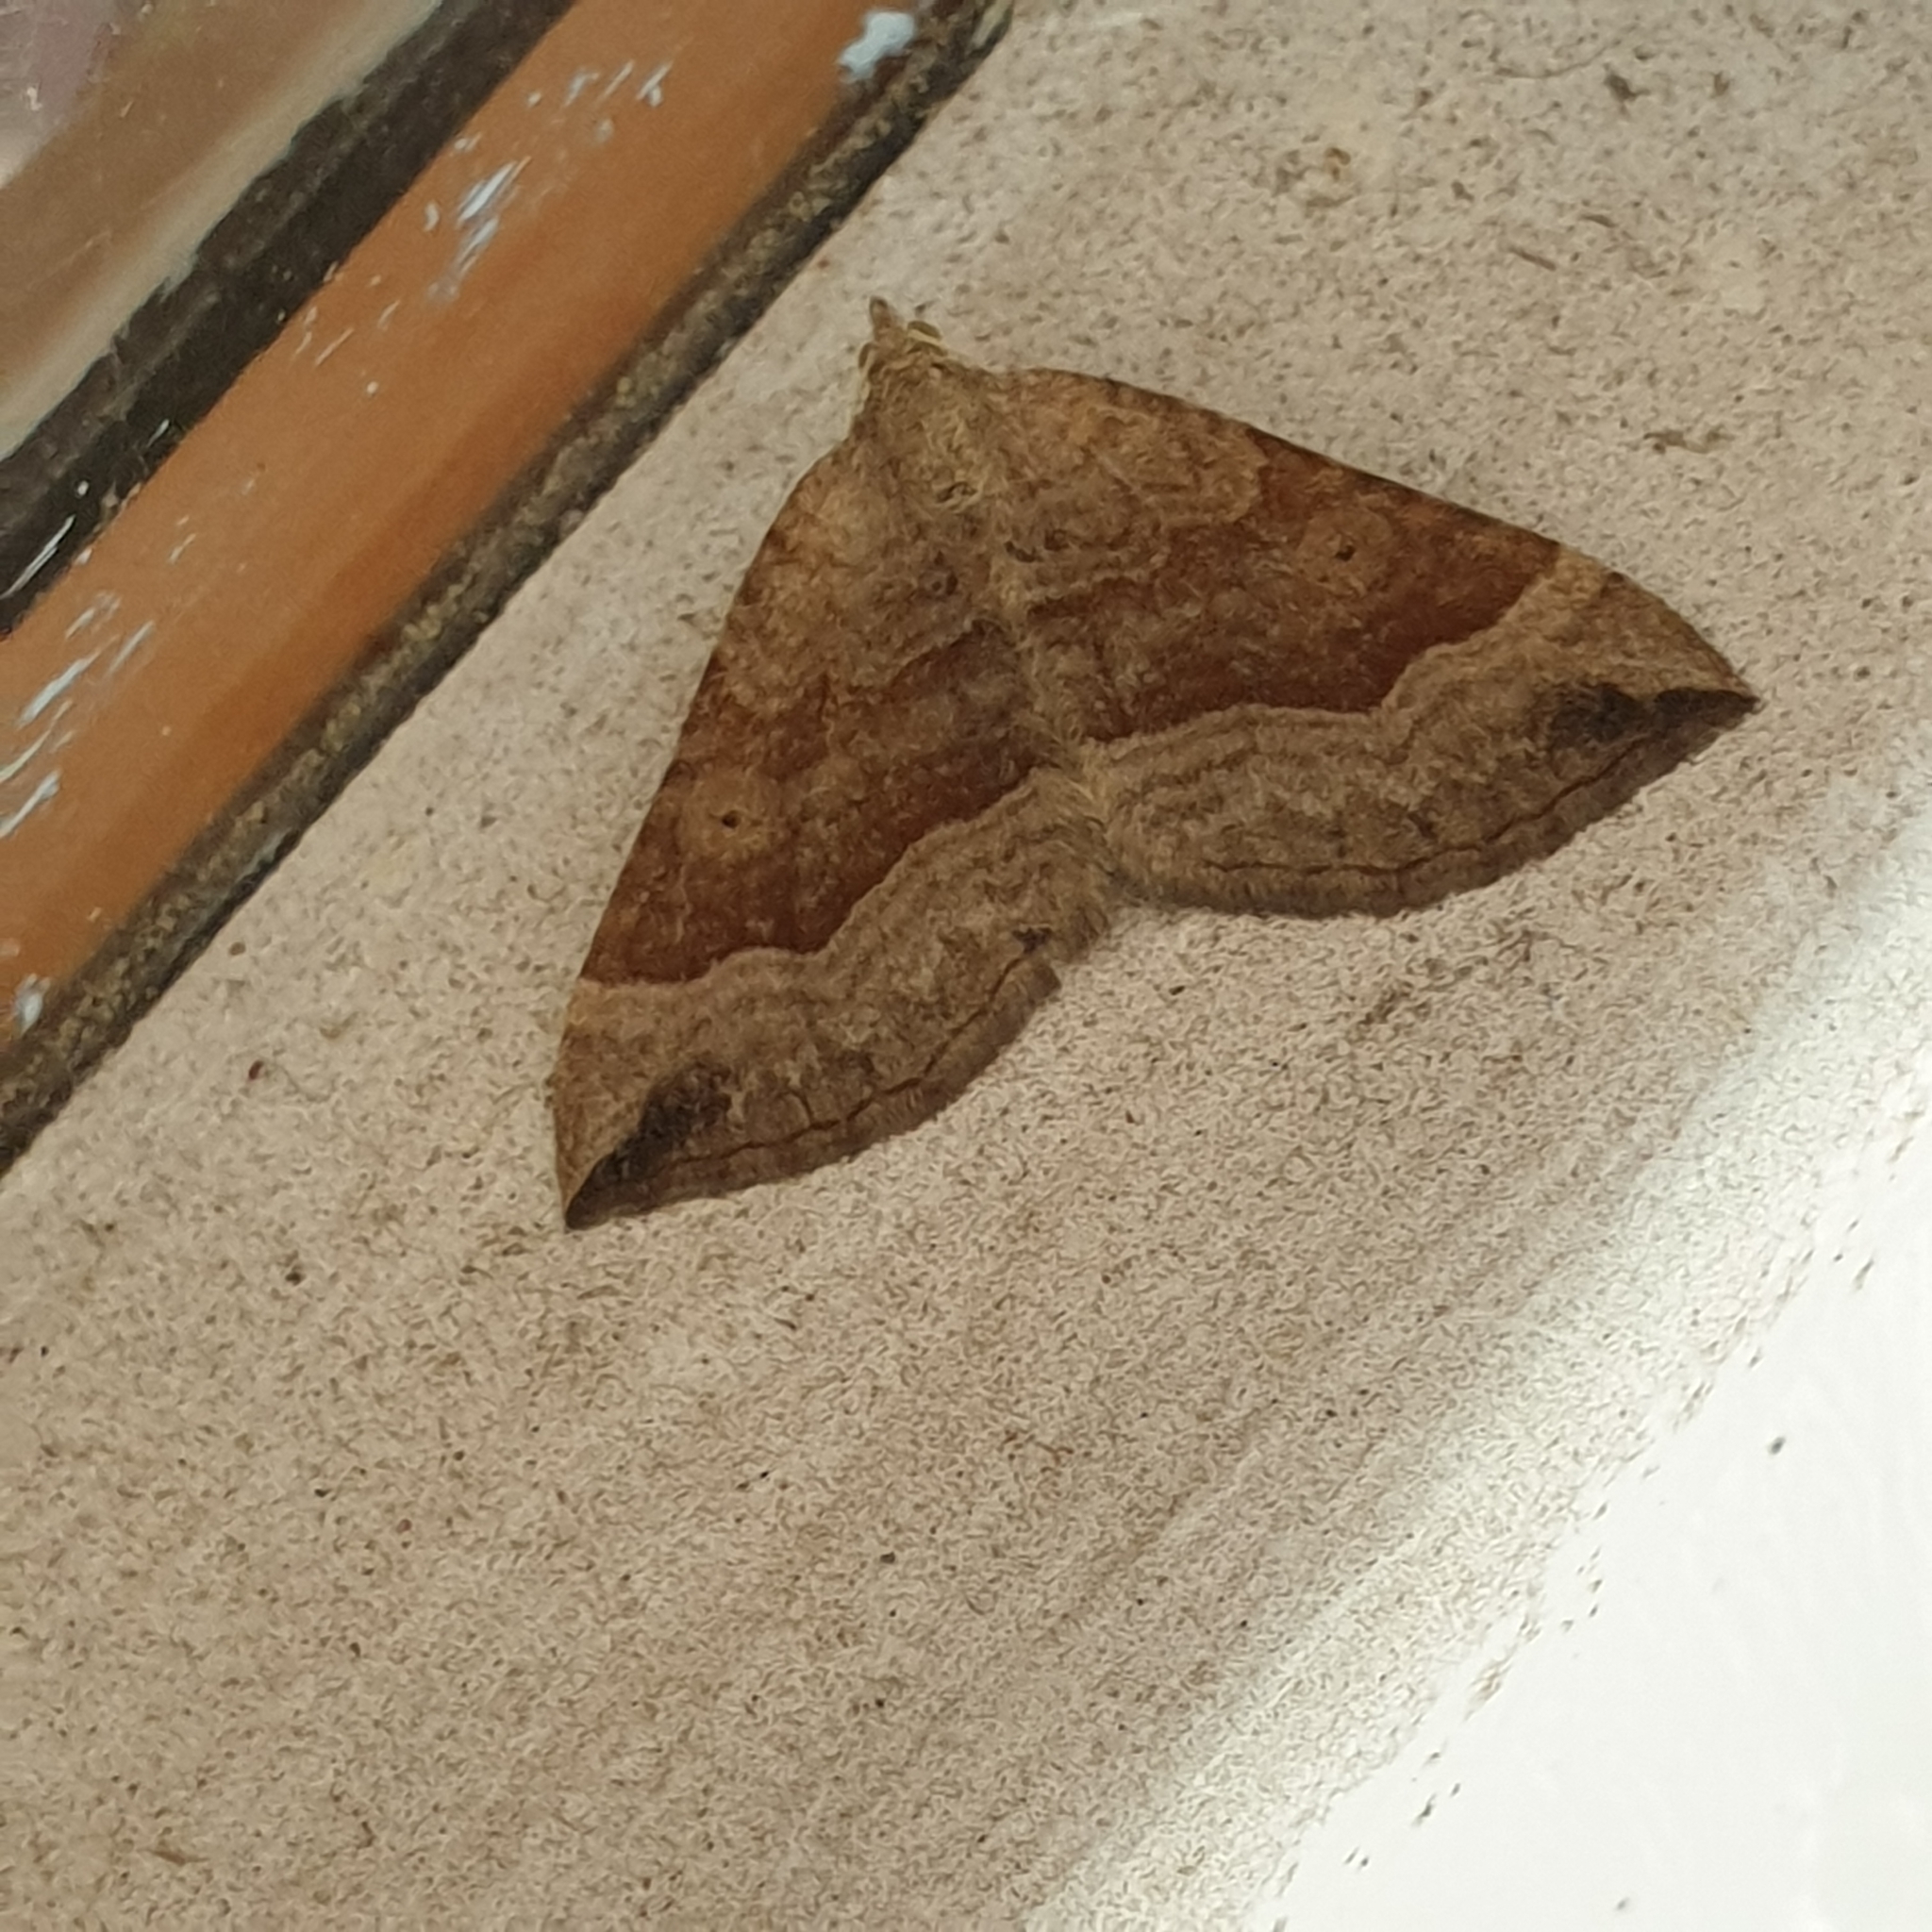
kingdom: Animalia
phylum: Arthropoda
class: Insecta
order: Lepidoptera
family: Geometridae
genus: Scotopteryx
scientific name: Scotopteryx chenopodiata
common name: Shaded broad-bar
